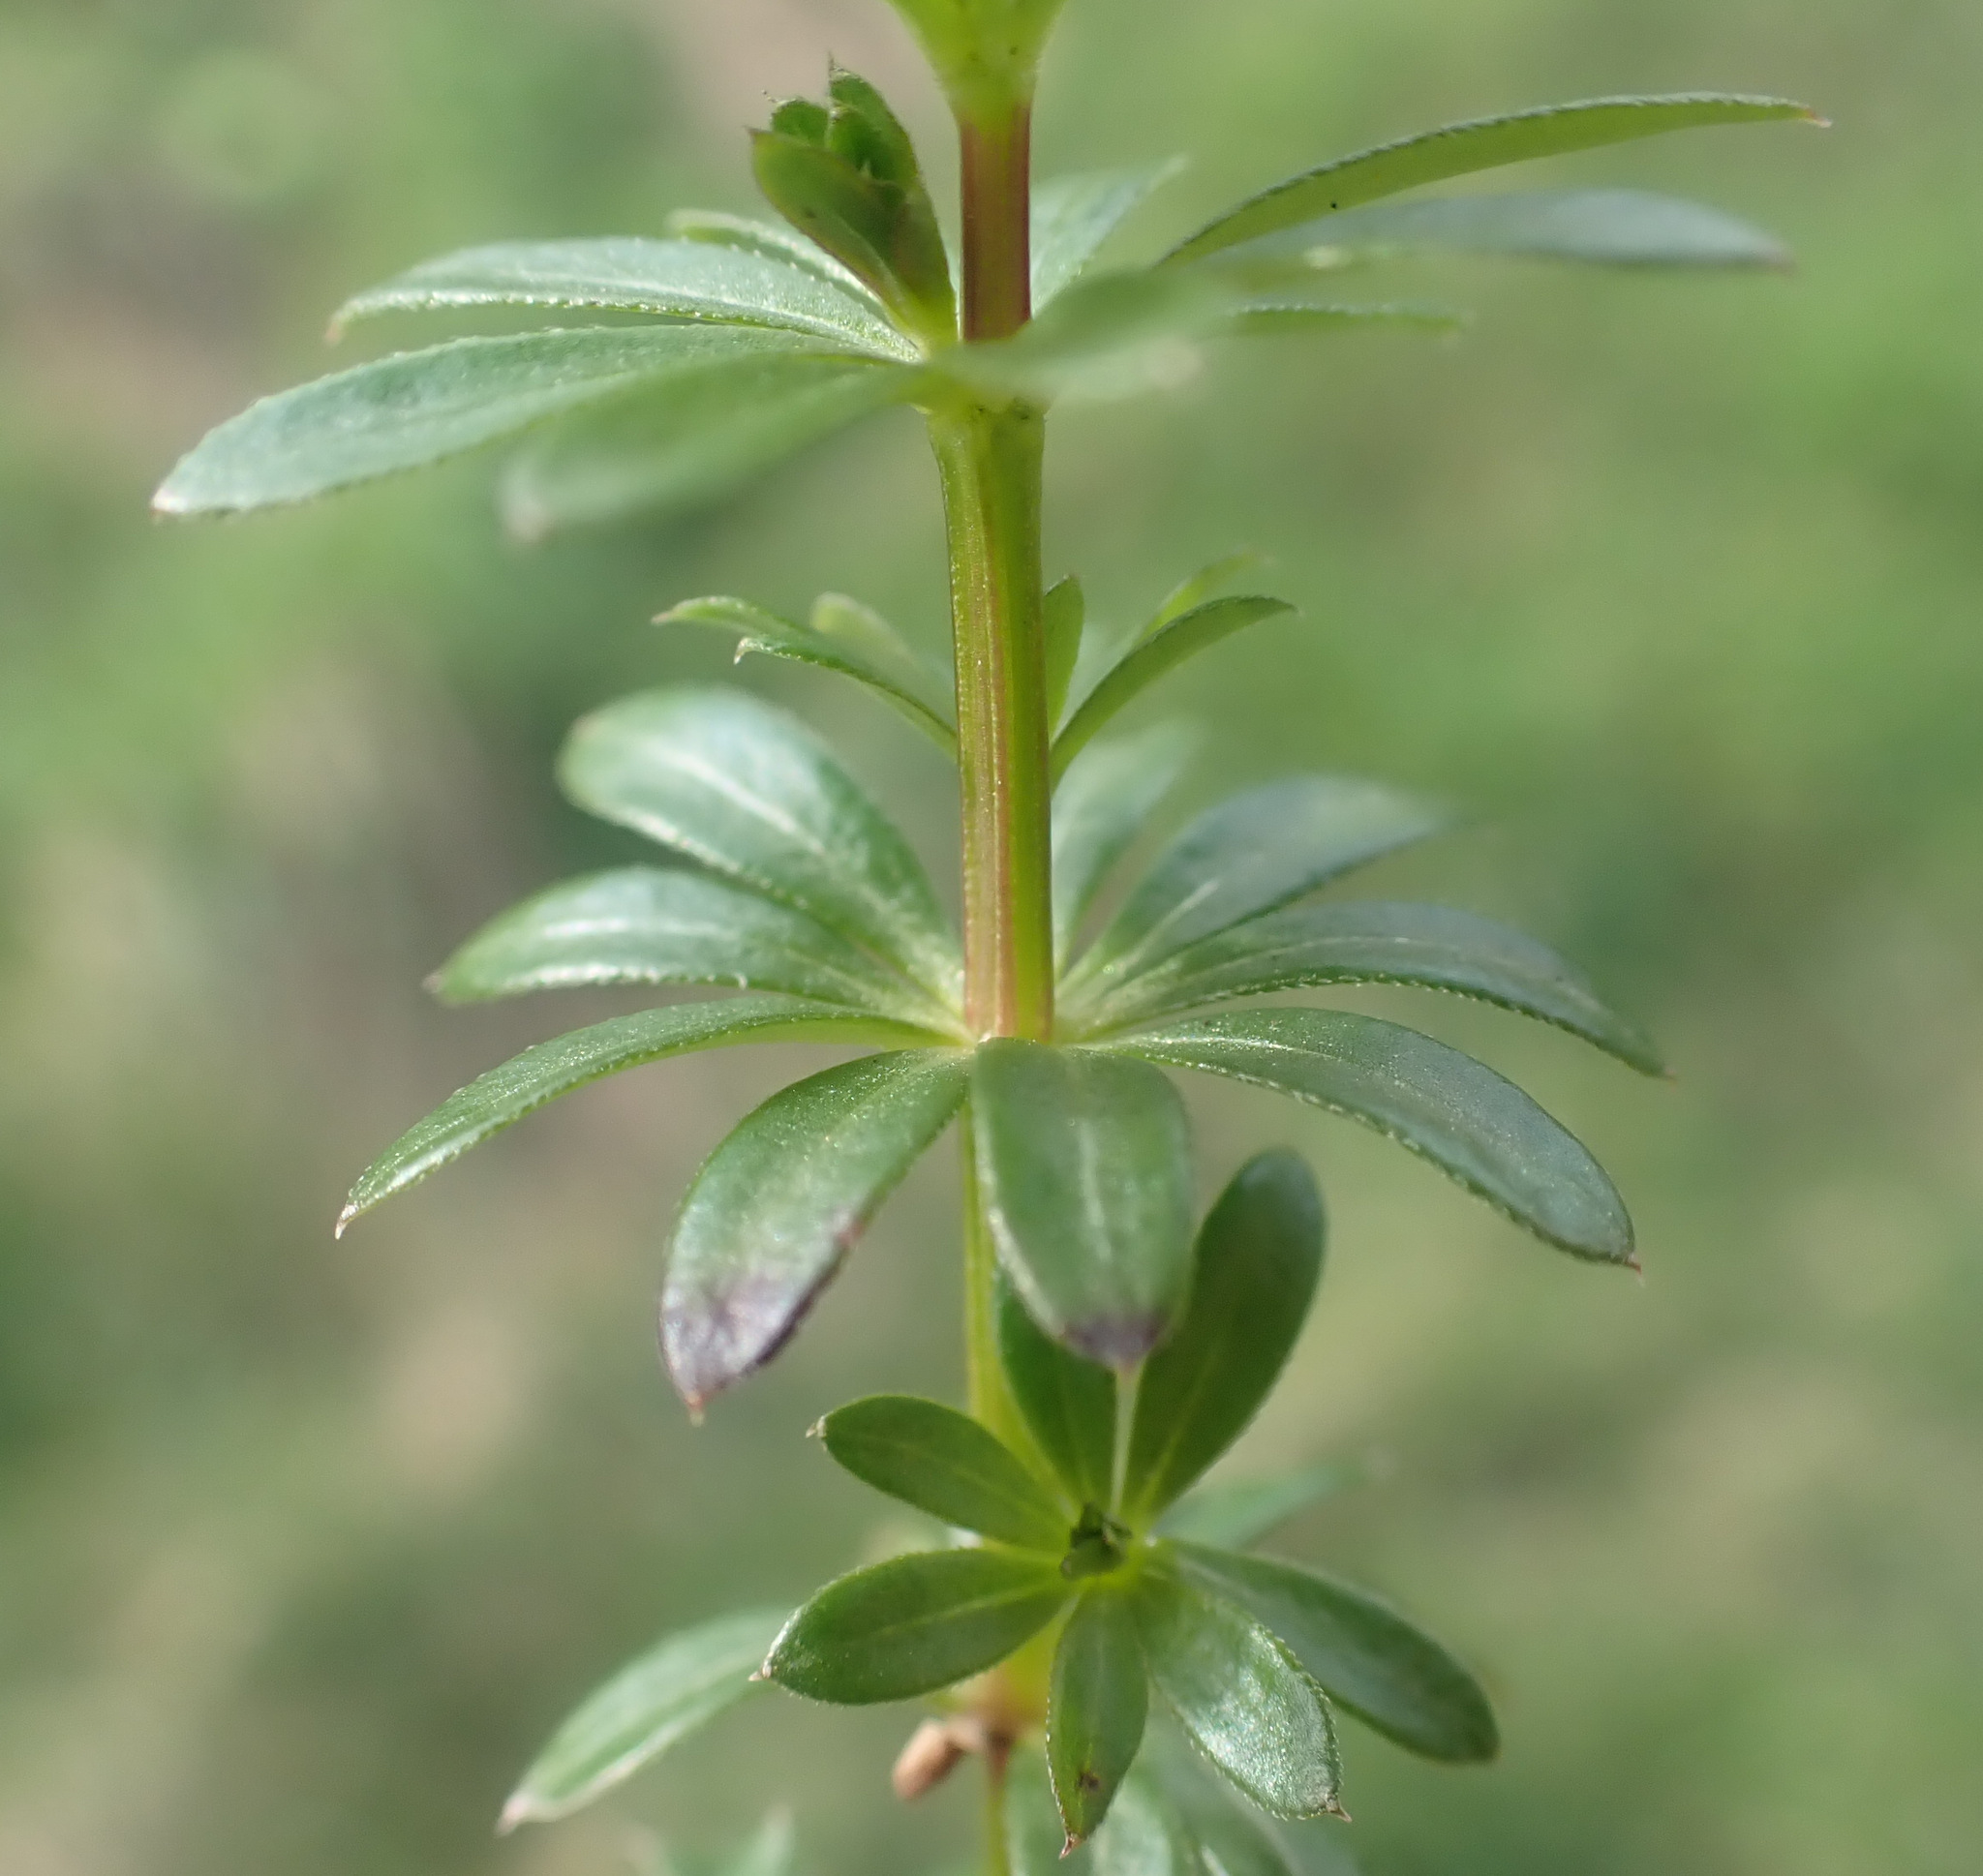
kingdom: Plantae
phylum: Tracheophyta
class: Magnoliopsida
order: Gentianales
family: Rubiaceae
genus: Galium
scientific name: Galium mollugo
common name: Hedge bedstraw
